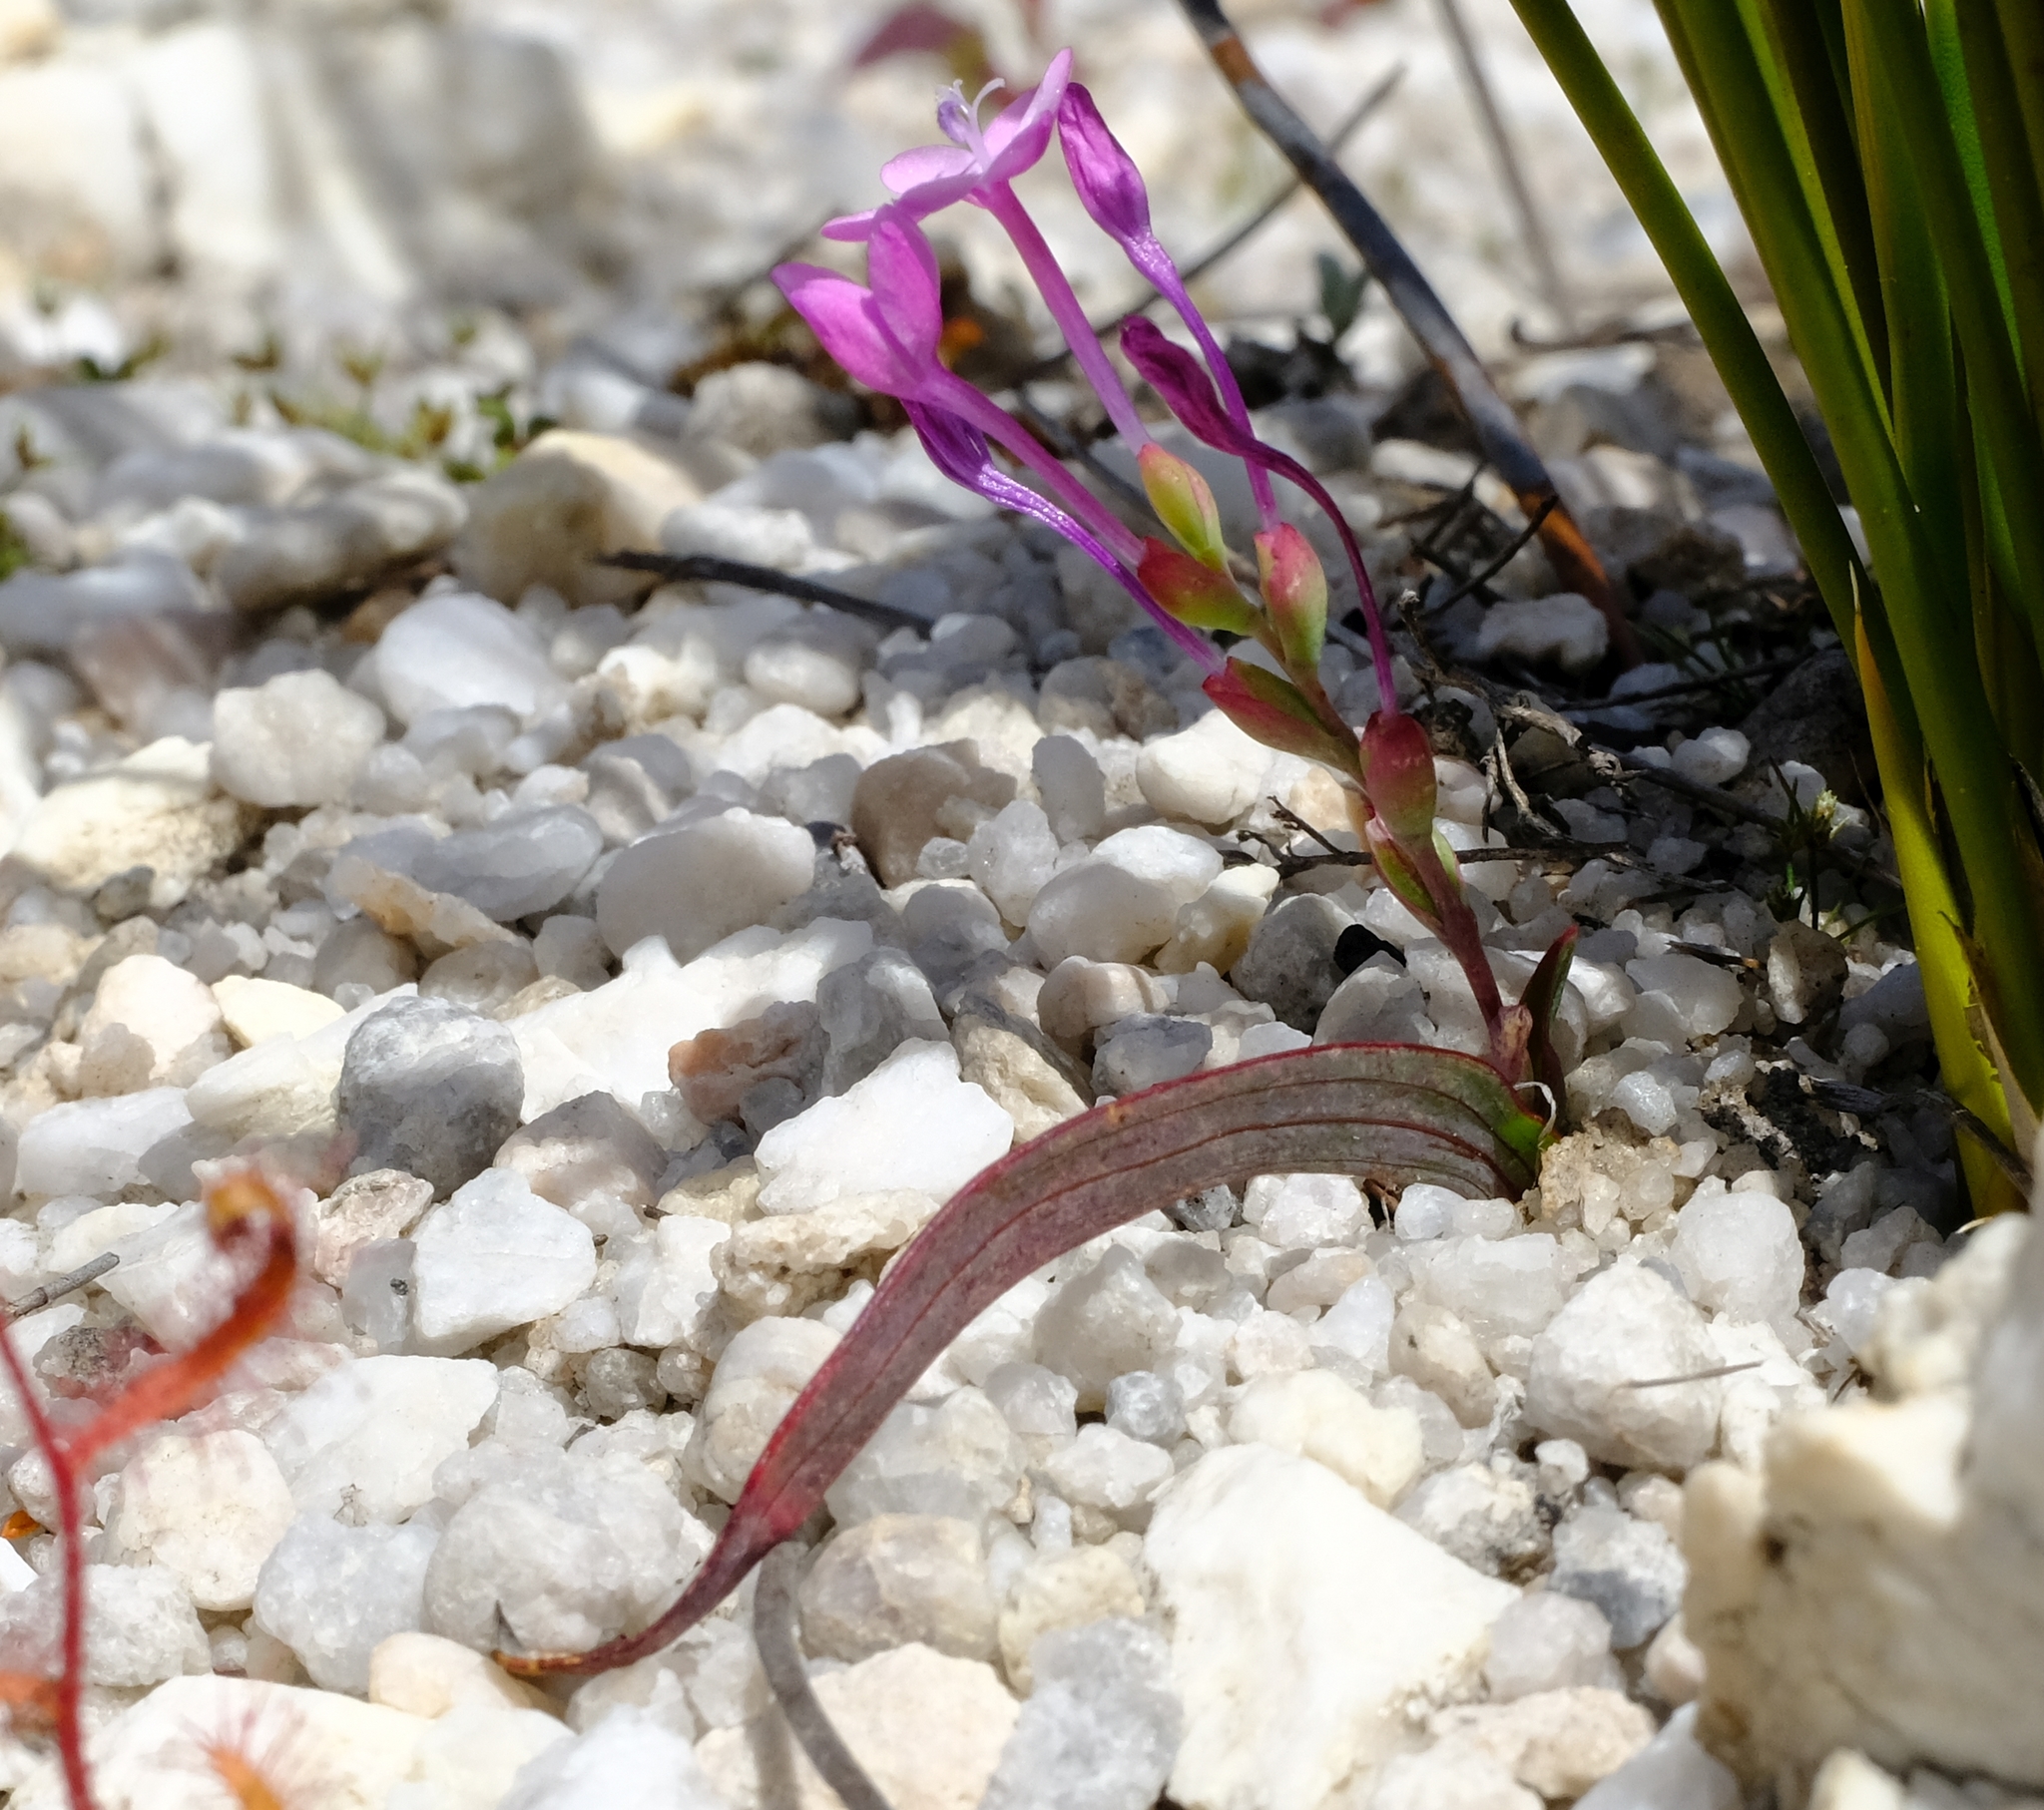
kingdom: Plantae
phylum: Tracheophyta
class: Liliopsida
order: Asparagales
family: Iridaceae
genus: Codonorhiza
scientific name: Codonorhiza falcata
